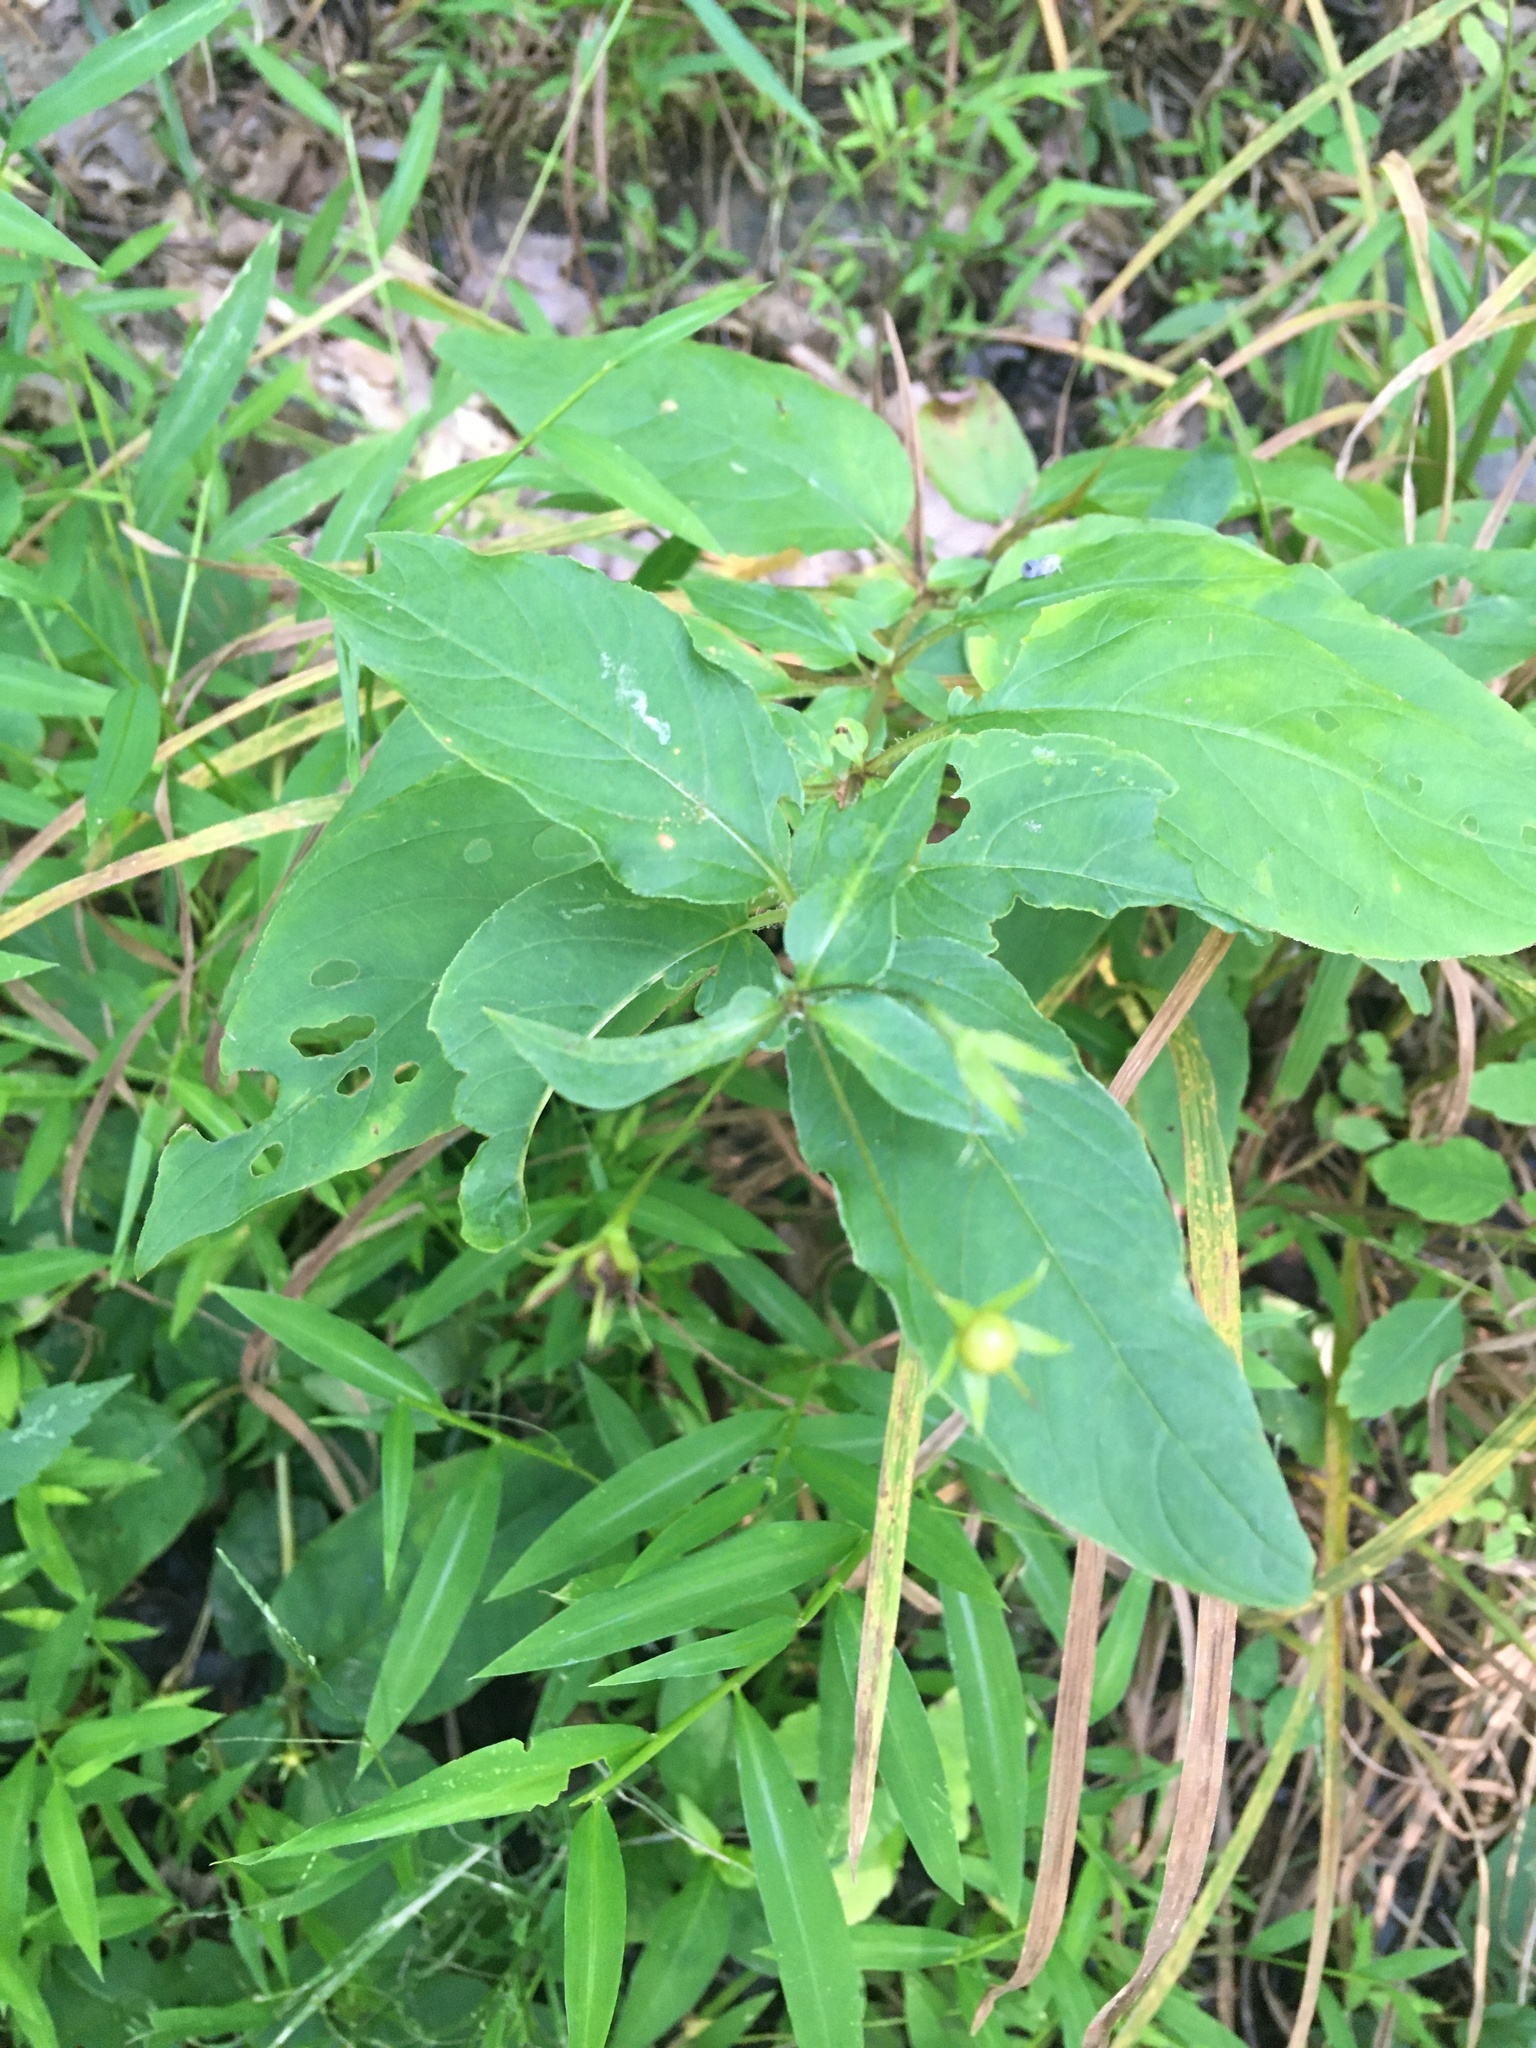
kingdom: Plantae
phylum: Tracheophyta
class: Magnoliopsida
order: Ericales
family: Primulaceae
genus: Lysimachia
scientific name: Lysimachia ciliata
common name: Fringed loosestrife
